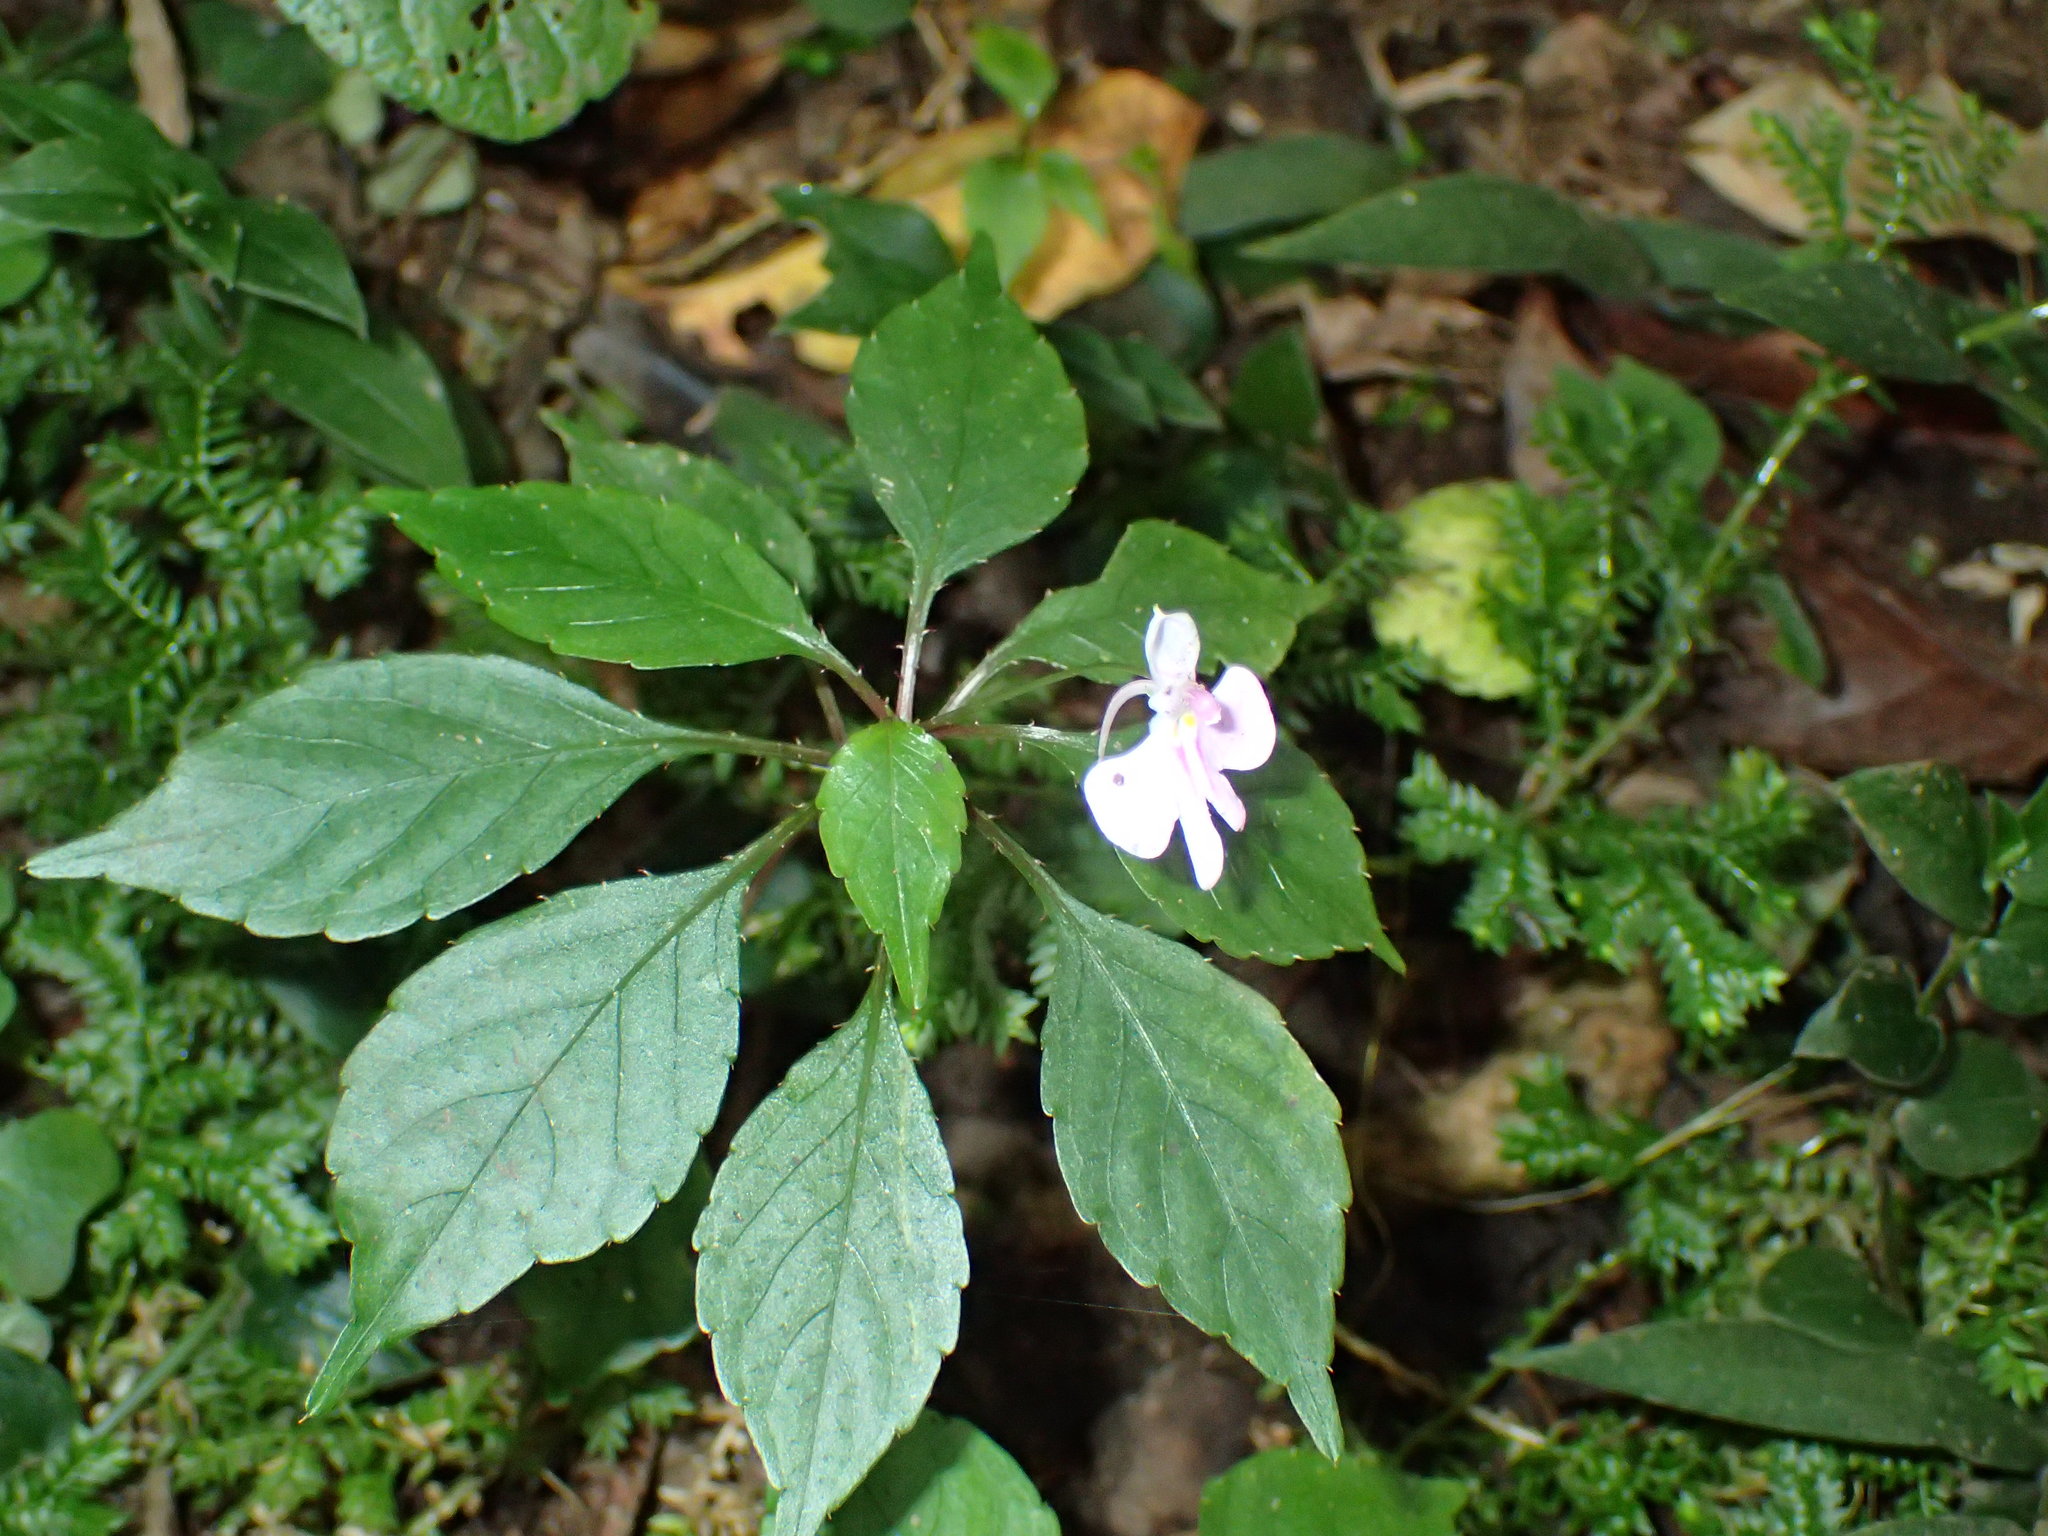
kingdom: Plantae
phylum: Tracheophyta
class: Magnoliopsida
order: Ericales
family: Balsaminaceae
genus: Impatiens
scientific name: Impatiens hochstetteri
